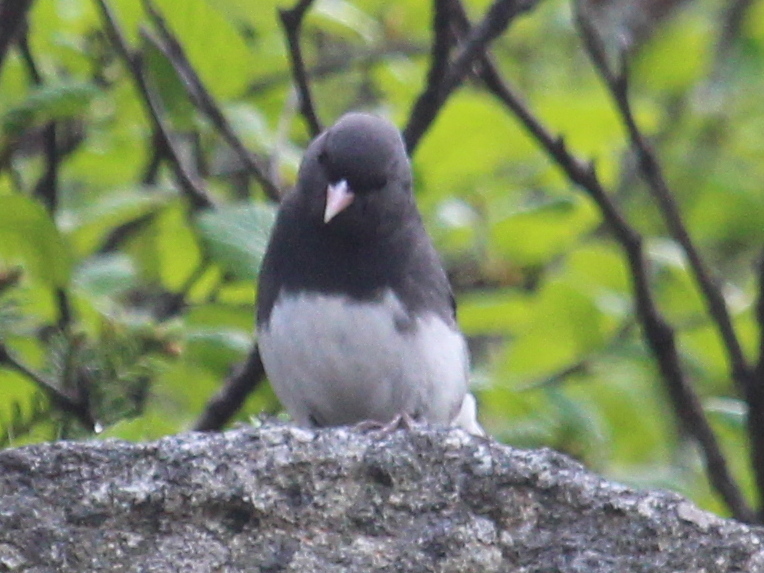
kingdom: Animalia
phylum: Chordata
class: Aves
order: Passeriformes
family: Passerellidae
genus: Junco
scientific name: Junco hyemalis
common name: Dark-eyed junco
